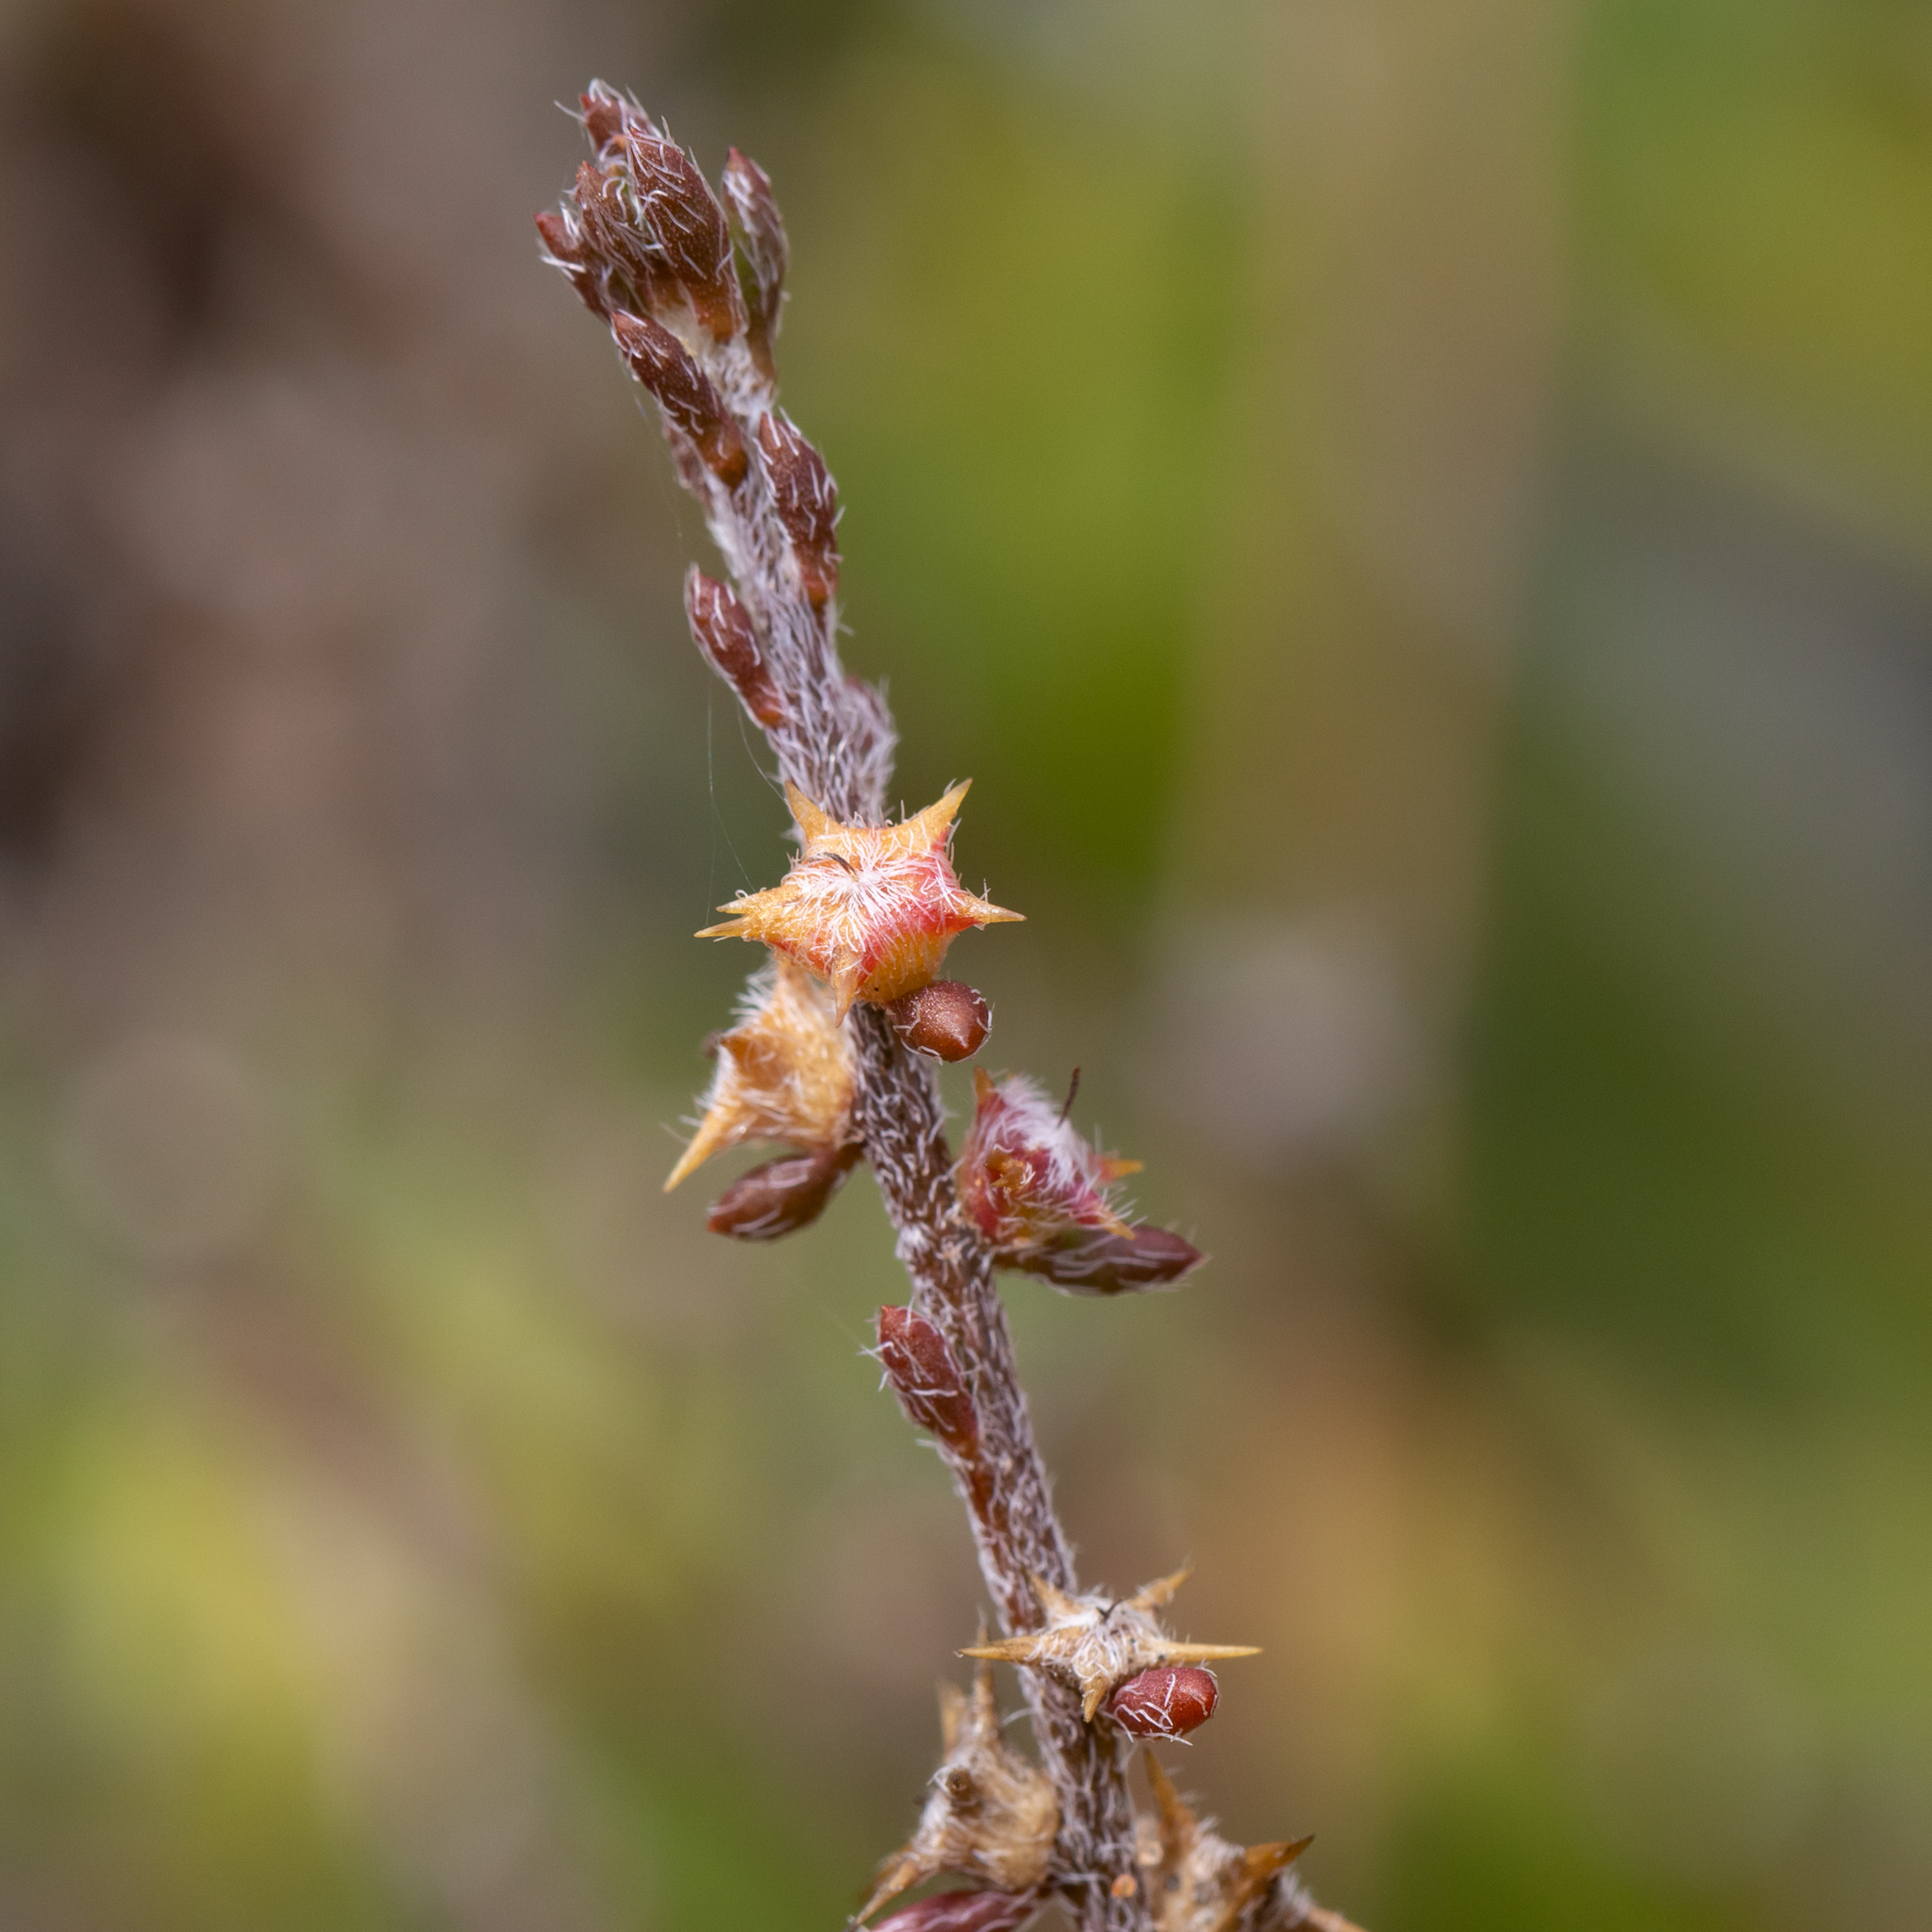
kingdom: Plantae
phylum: Tracheophyta
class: Magnoliopsida
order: Caryophyllales
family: Amaranthaceae
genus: Sclerolaena
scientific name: Sclerolaena parviflora
